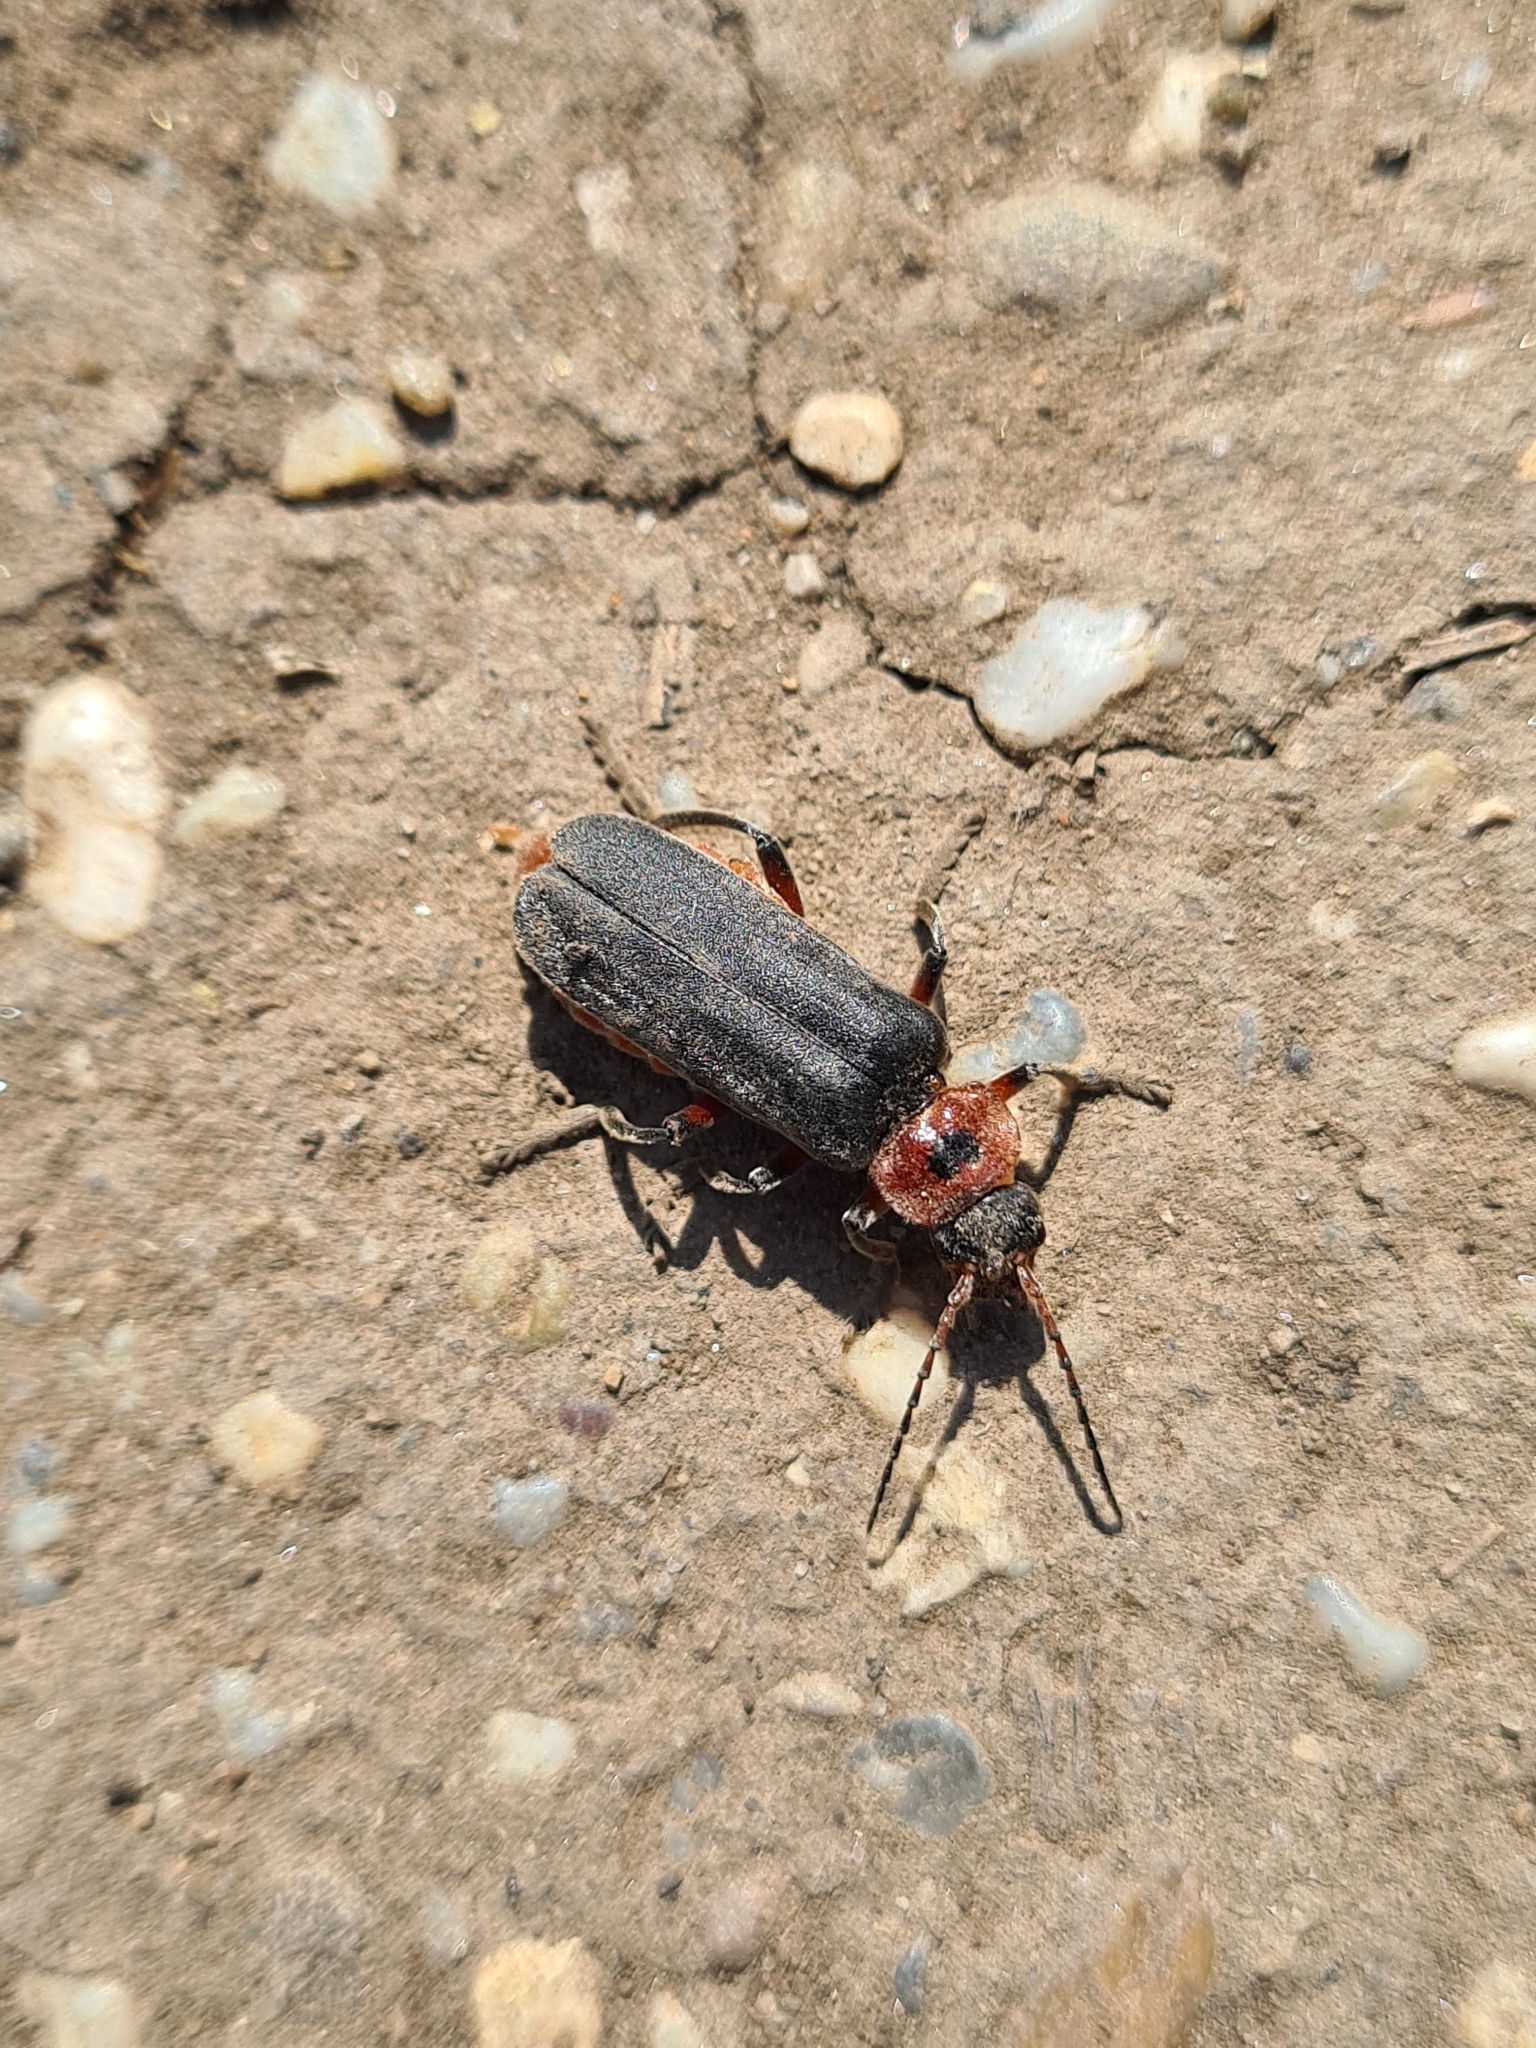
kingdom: Animalia
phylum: Arthropoda
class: Insecta
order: Coleoptera
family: Cantharidae
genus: Cantharis
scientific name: Cantharis rustica
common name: Soldier beetle
